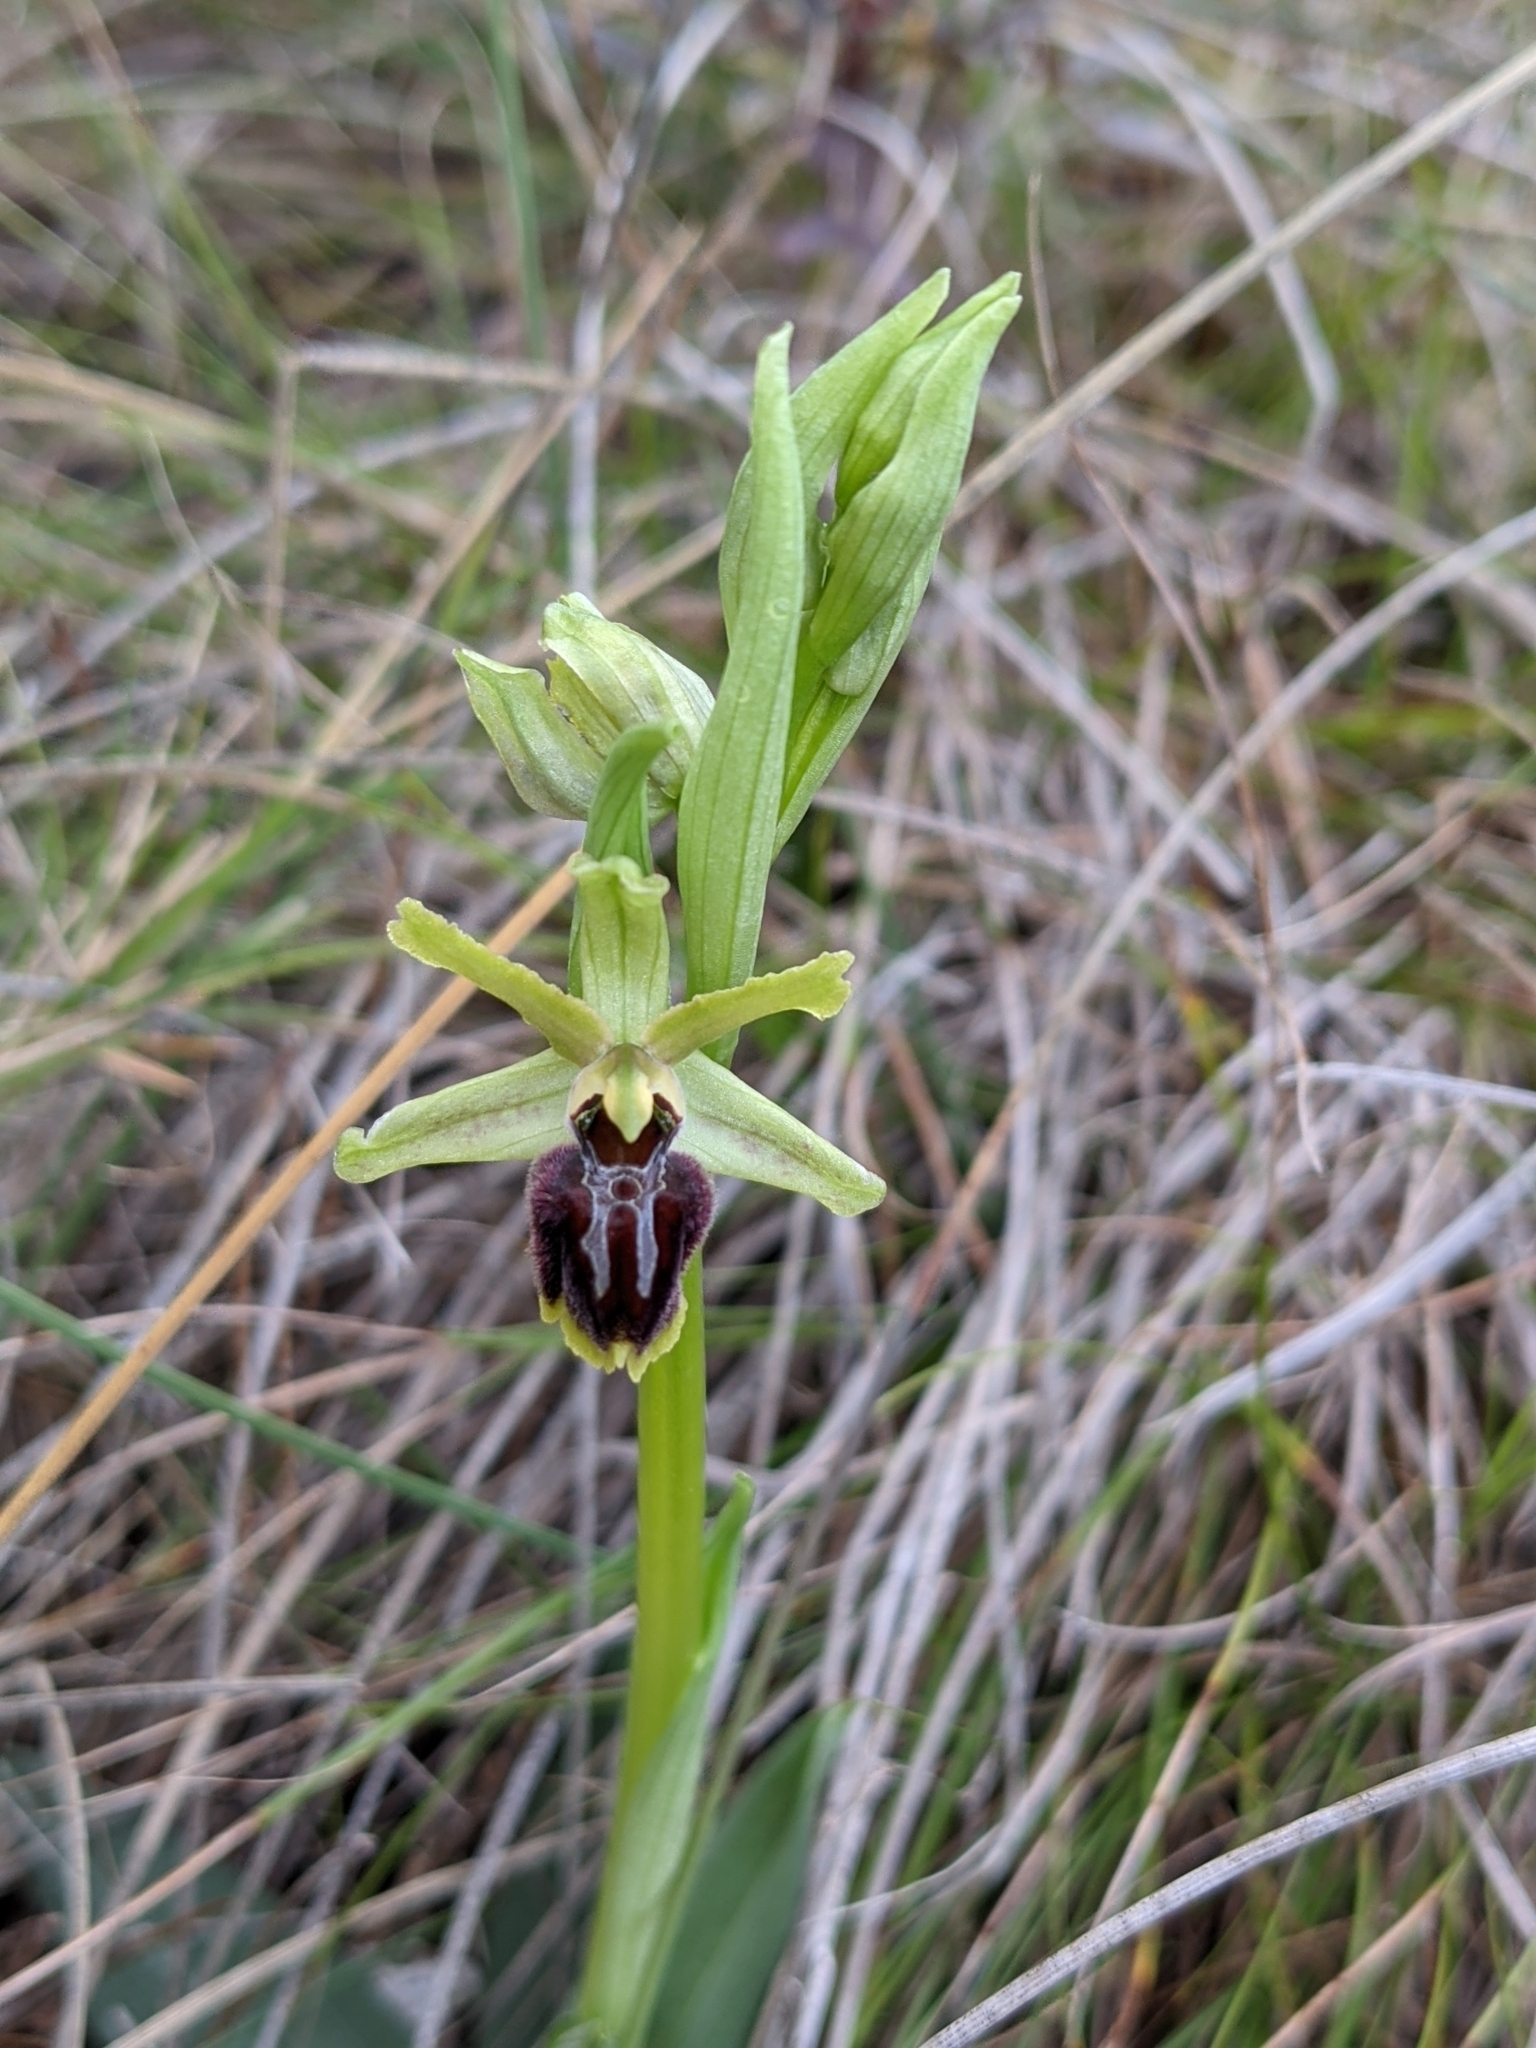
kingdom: Plantae
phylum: Tracheophyta
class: Liliopsida
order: Asparagales
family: Orchidaceae
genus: Ophrys
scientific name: Ophrys sphegodes
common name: Early spider-orchid
